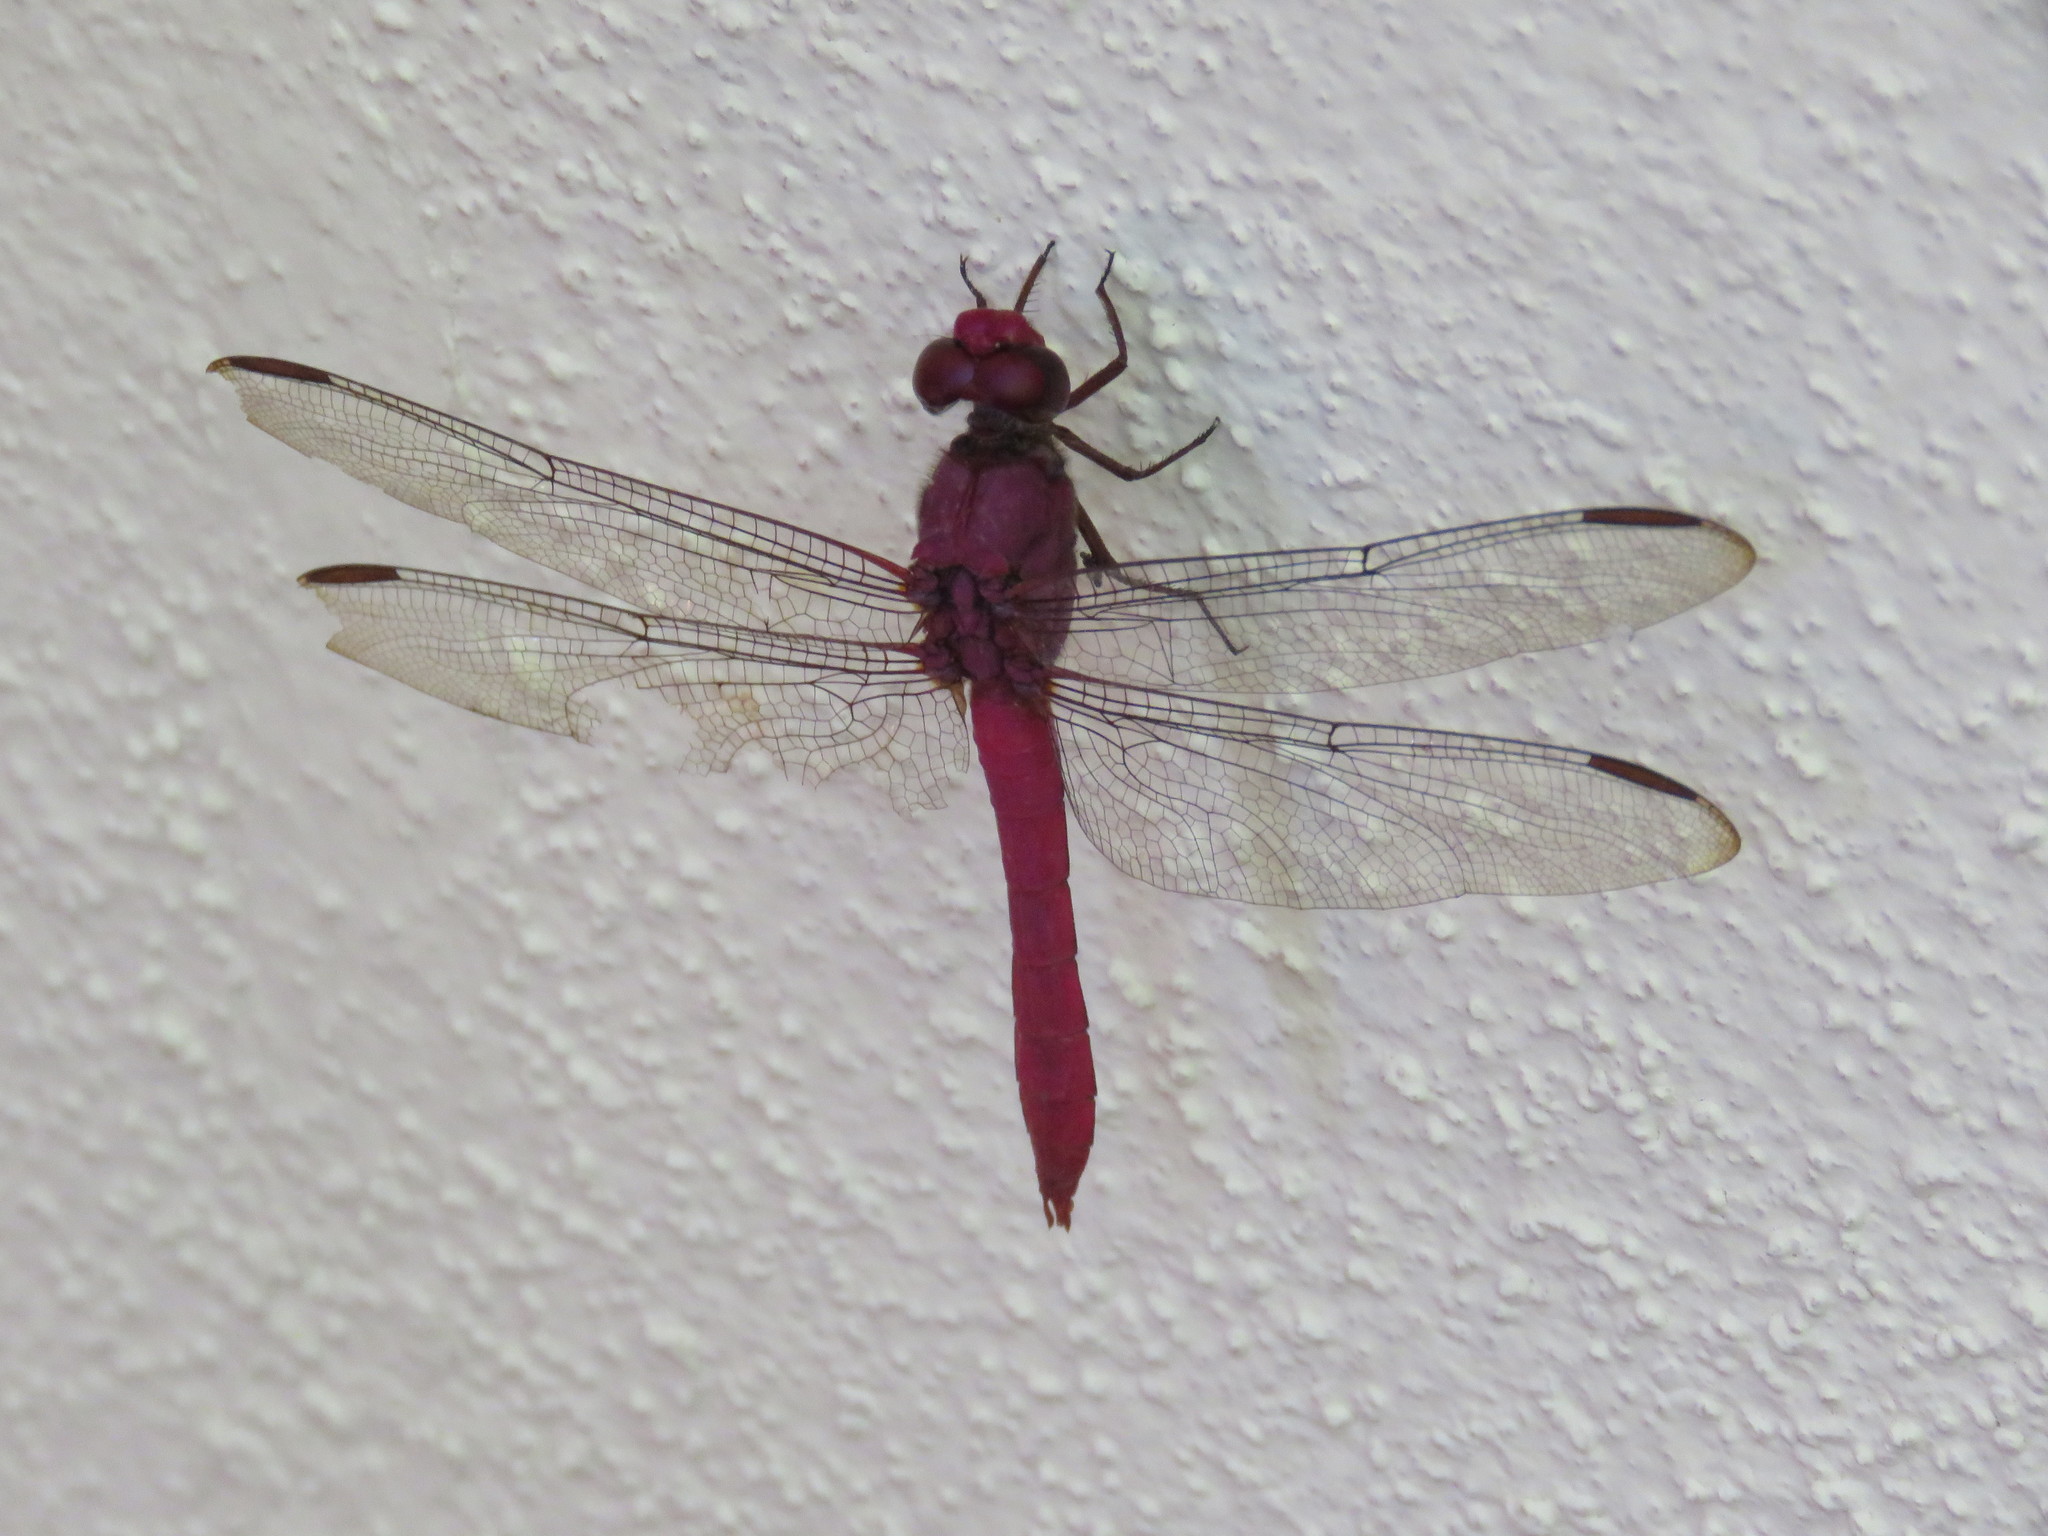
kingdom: Animalia
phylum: Arthropoda
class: Insecta
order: Odonata
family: Libellulidae
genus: Orthemis
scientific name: Orthemis discolor
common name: Carmine skimmer
